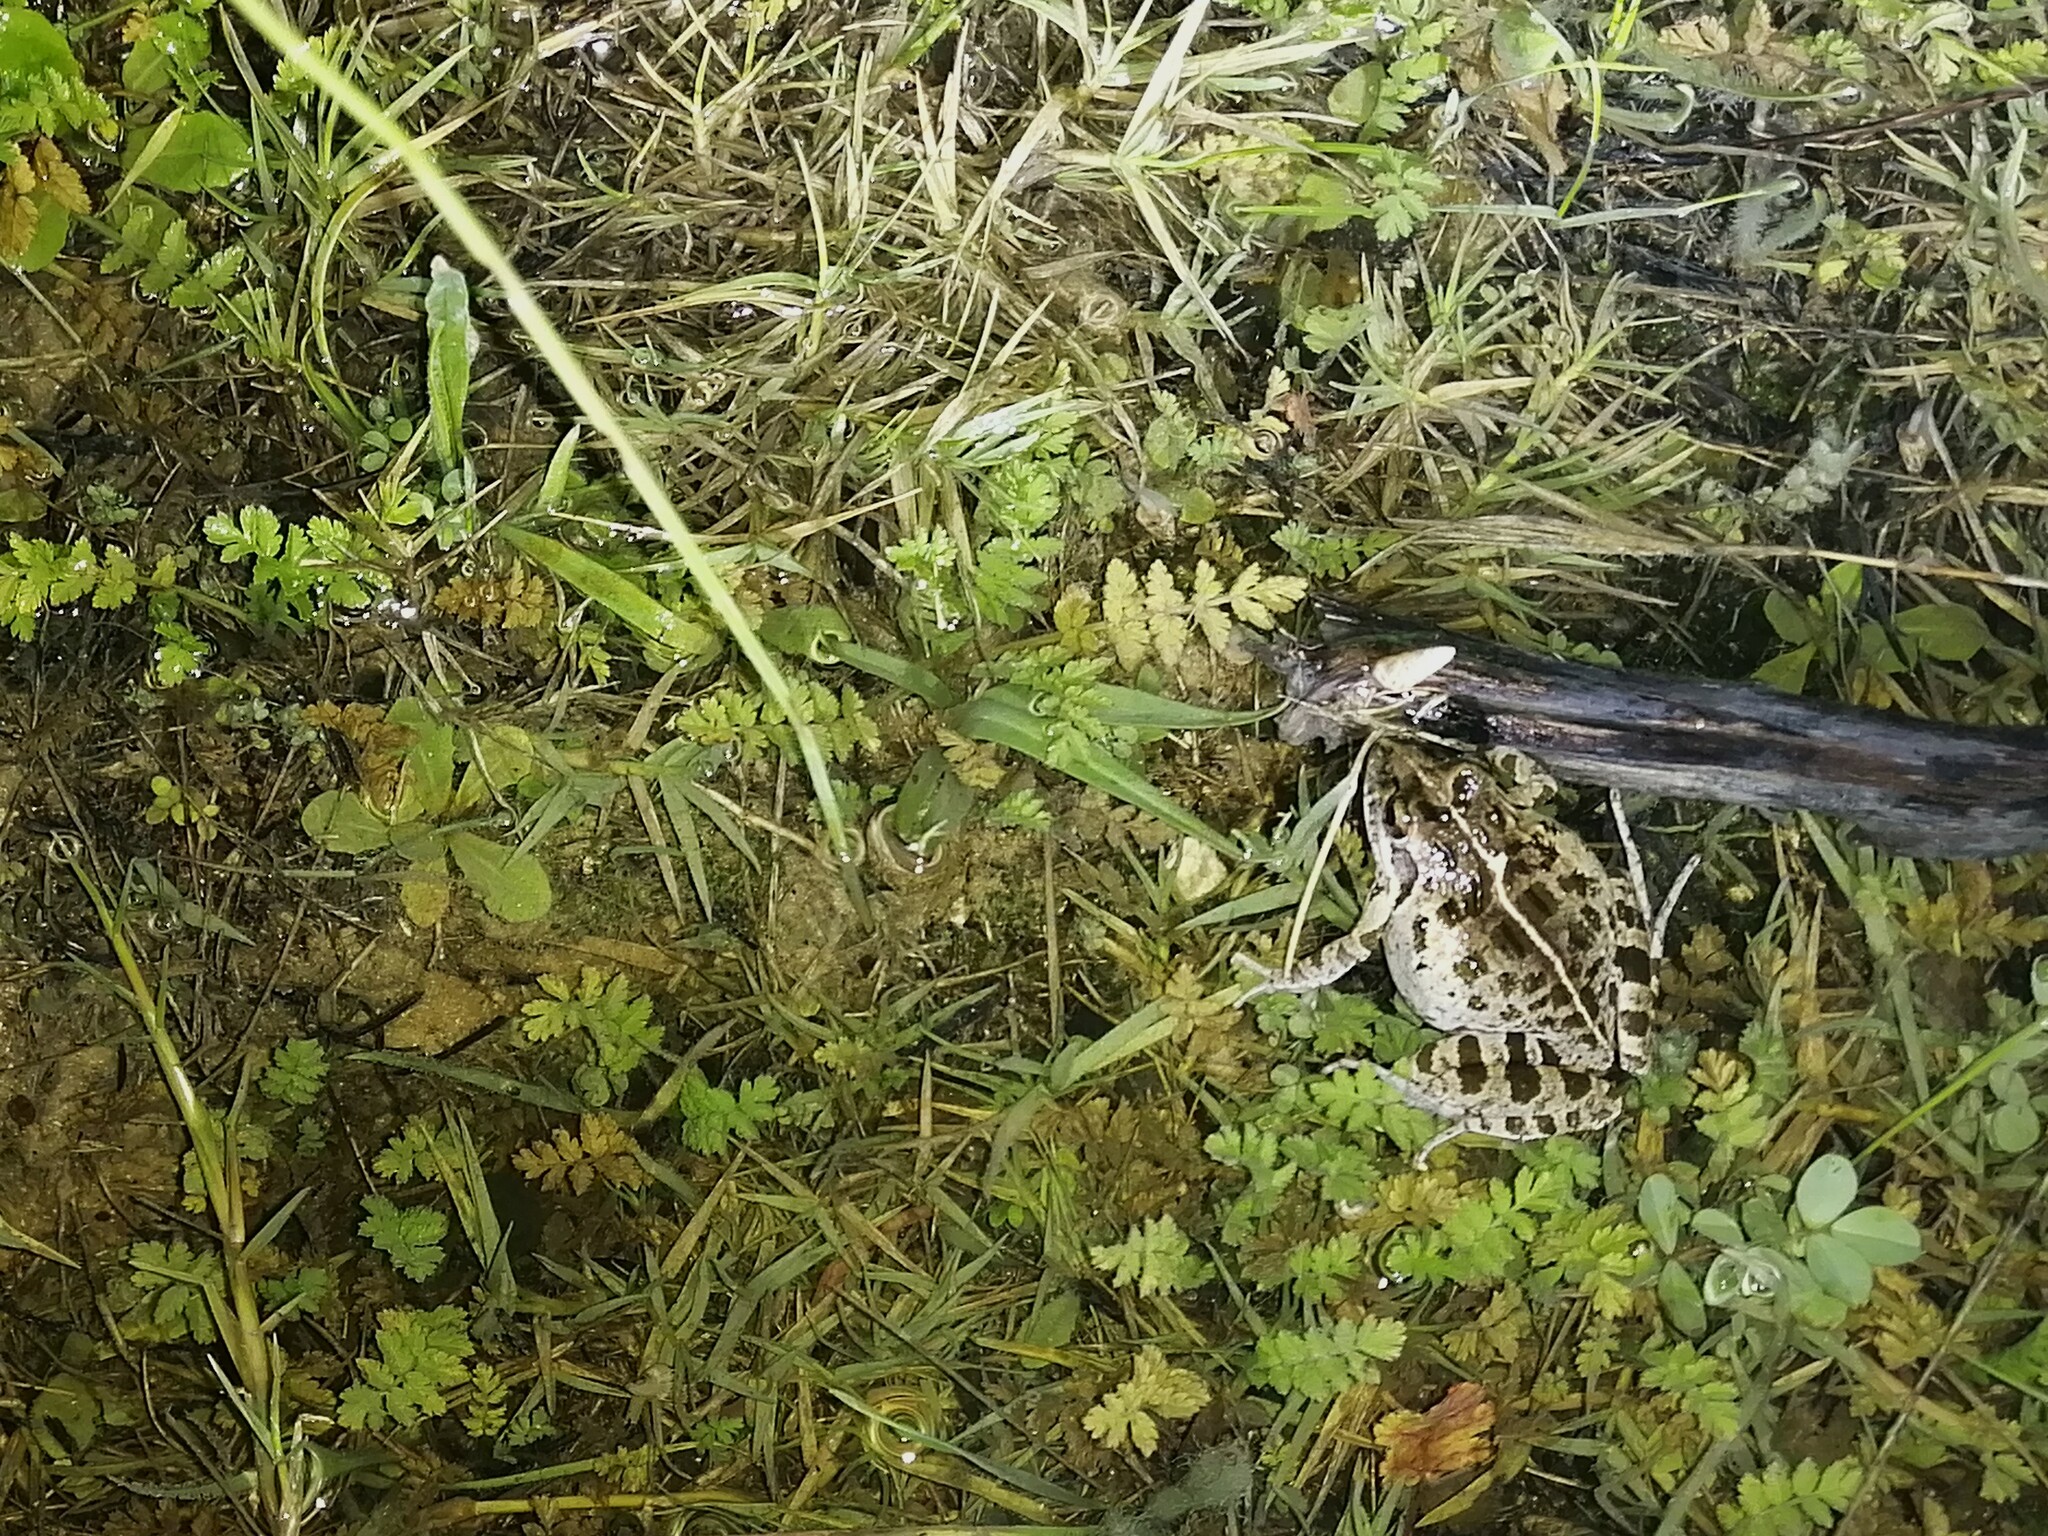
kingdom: Animalia
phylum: Chordata
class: Amphibia
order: Anura
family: Pyxicephalidae
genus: Strongylopus
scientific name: Strongylopus grayii
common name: Gray's stream frog
